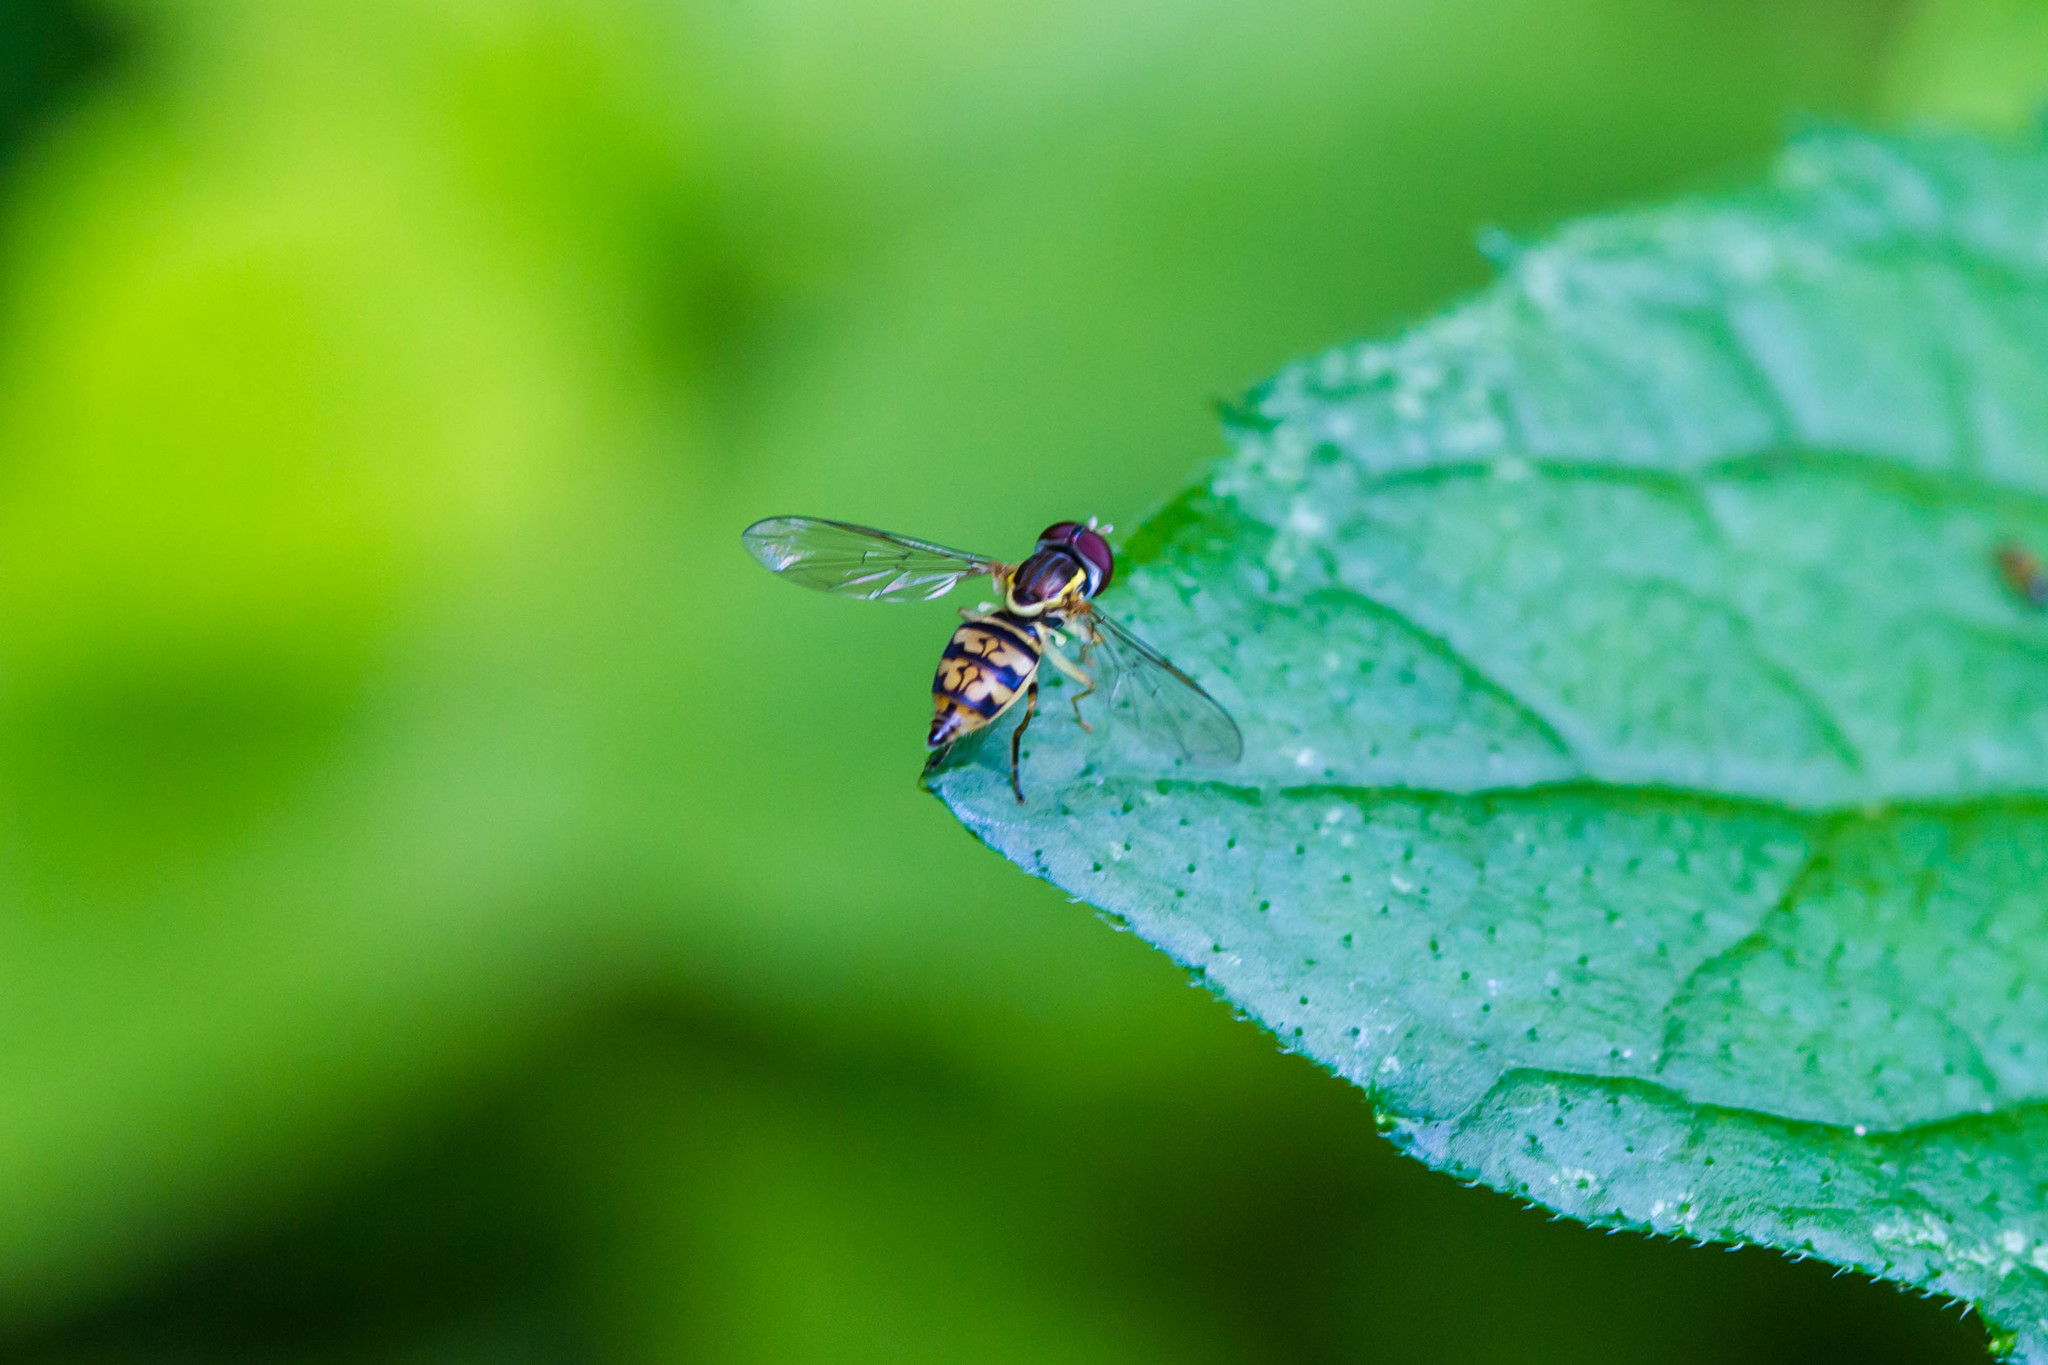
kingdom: Animalia
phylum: Arthropoda
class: Insecta
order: Diptera
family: Syrphidae
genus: Toxomerus
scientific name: Toxomerus geminatus
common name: Eastern calligrapher
